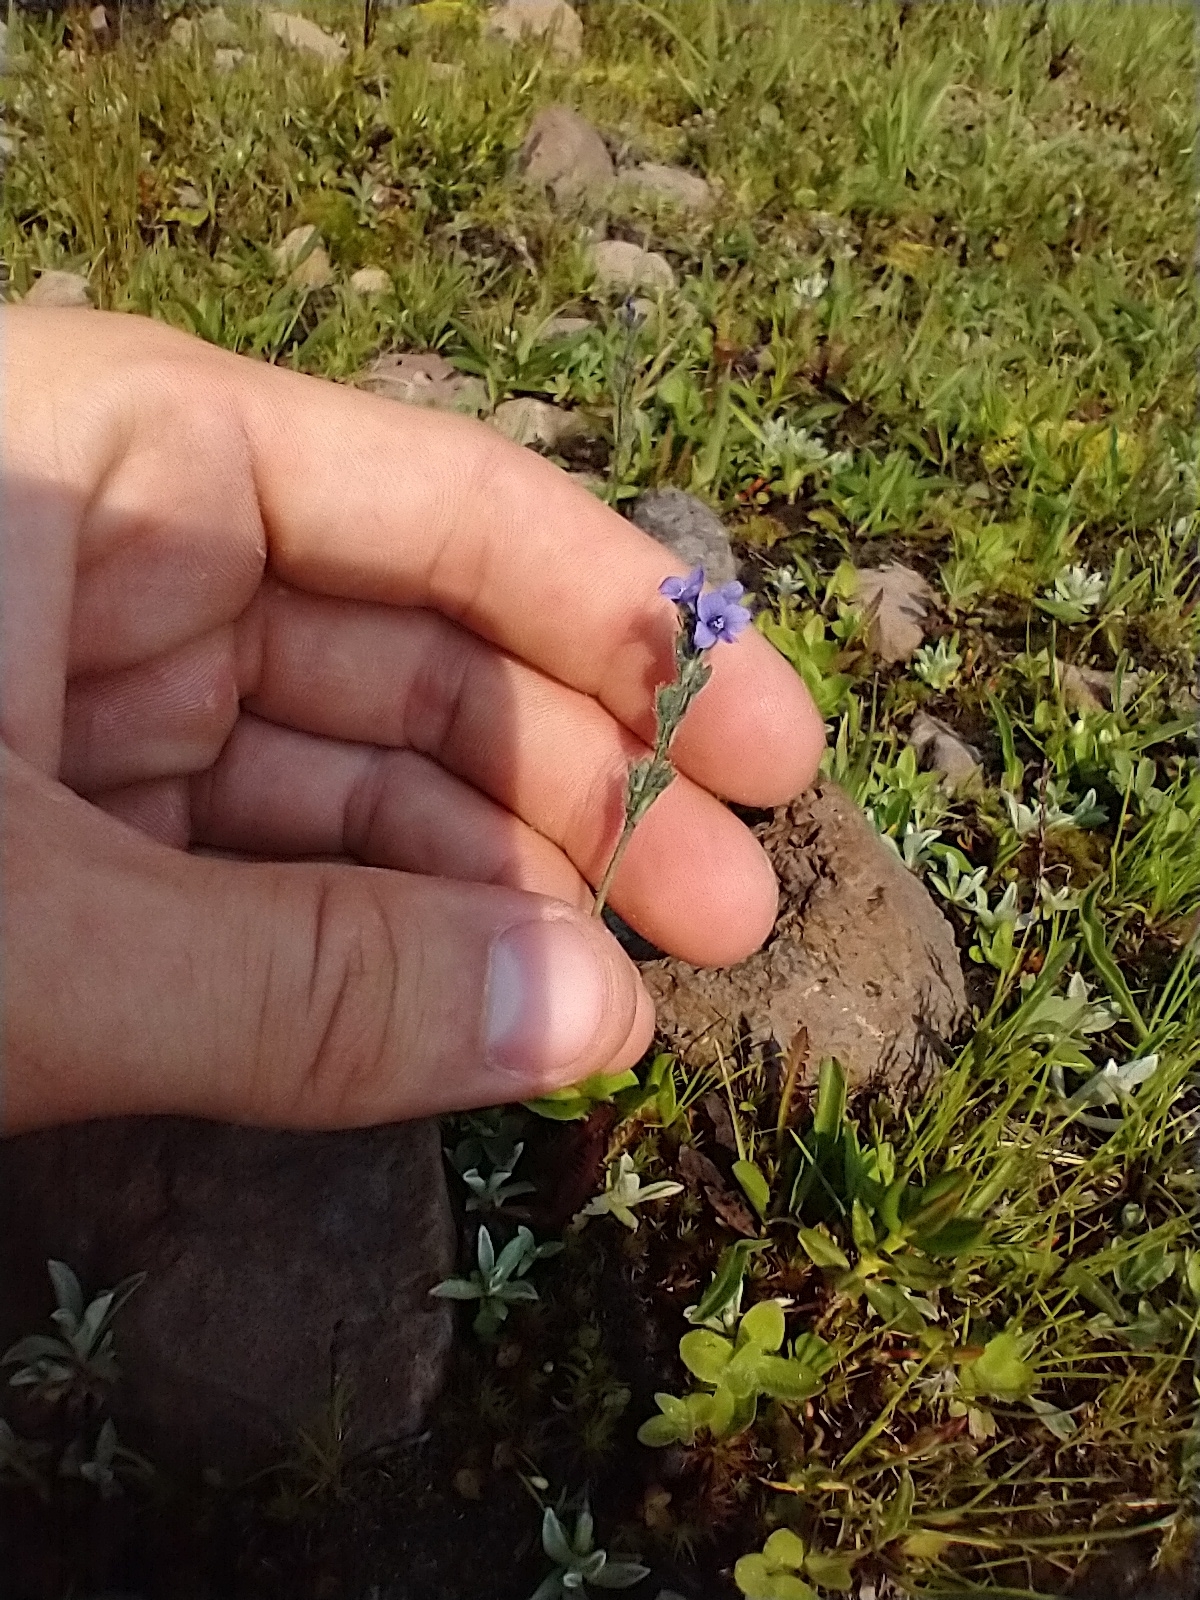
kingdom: Plantae
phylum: Tracheophyta
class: Magnoliopsida
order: Lamiales
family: Plantaginaceae
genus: Veronica
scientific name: Veronica wormskjoldii
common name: American alpine speedwell
